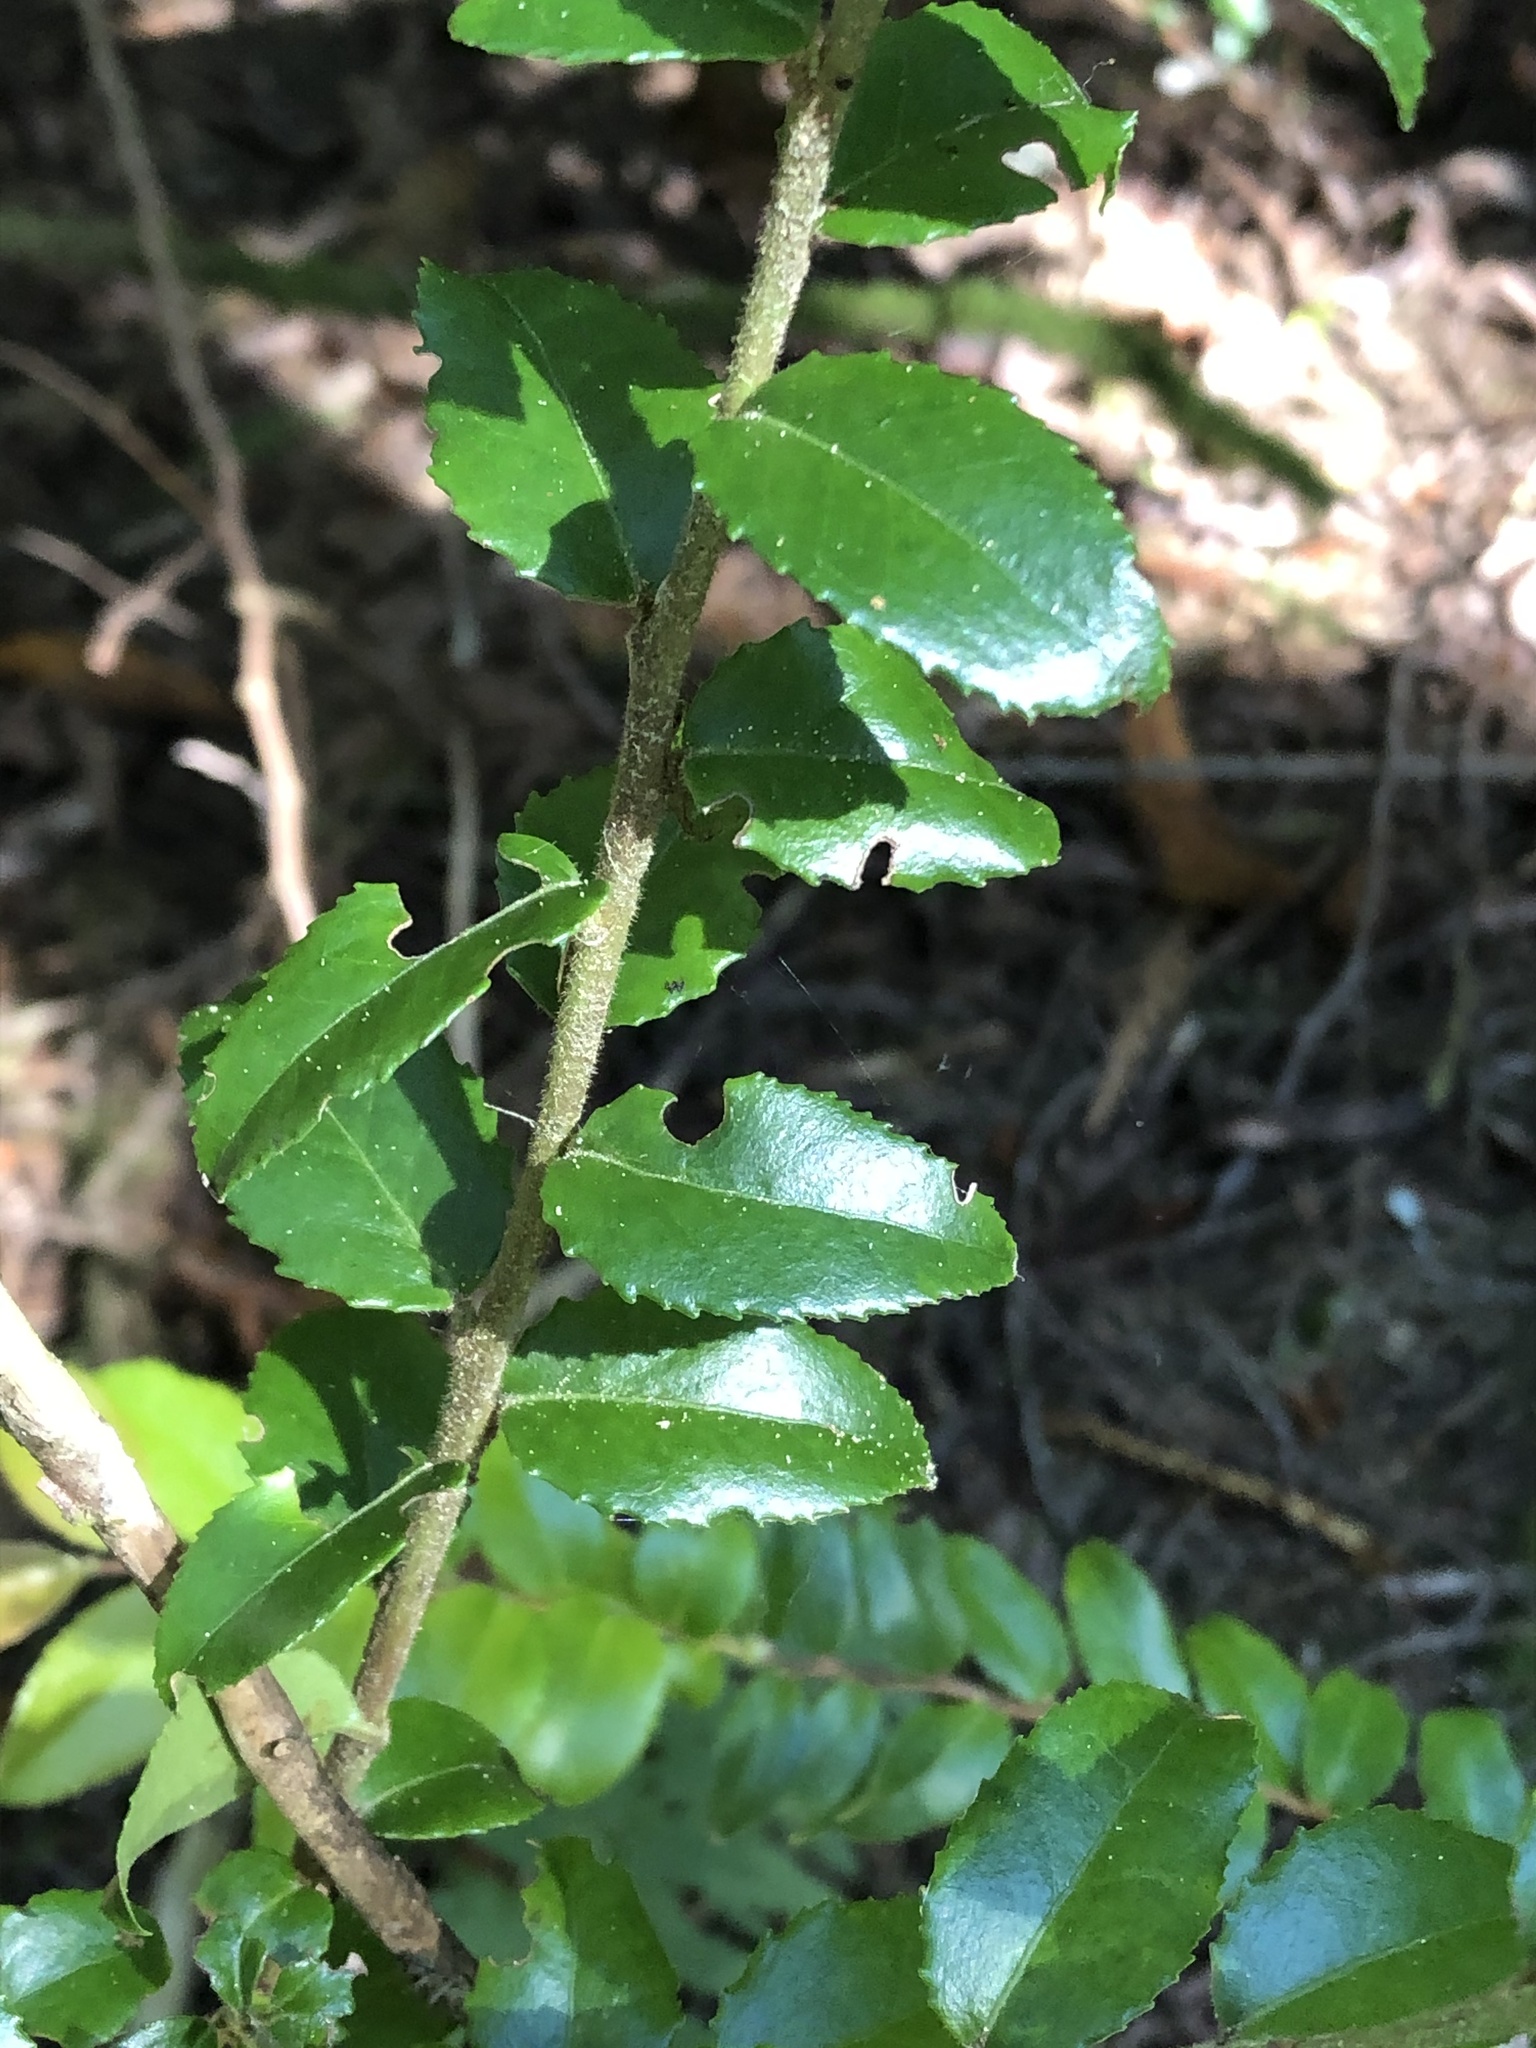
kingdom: Plantae
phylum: Tracheophyta
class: Magnoliopsida
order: Ericales
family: Ericaceae
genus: Vaccinium
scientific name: Vaccinium ovatum
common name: California-huckleberry
